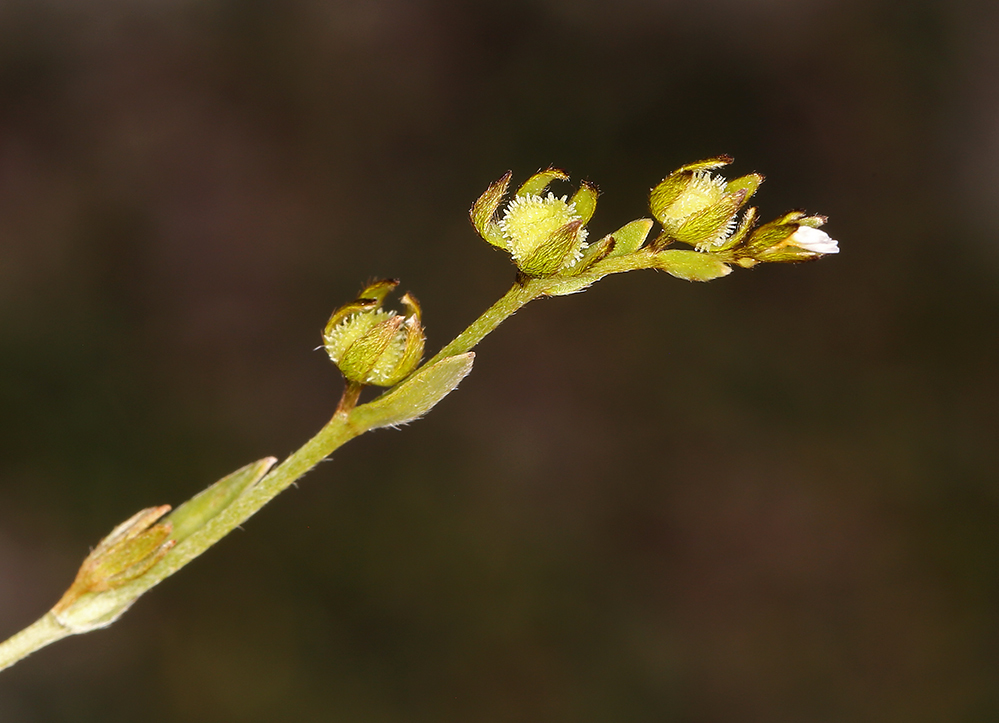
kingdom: Plantae
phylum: Tracheophyta
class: Magnoliopsida
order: Boraginales
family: Boraginaceae
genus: Plagiobothrys
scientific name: Plagiobothrys acanthocarpus
